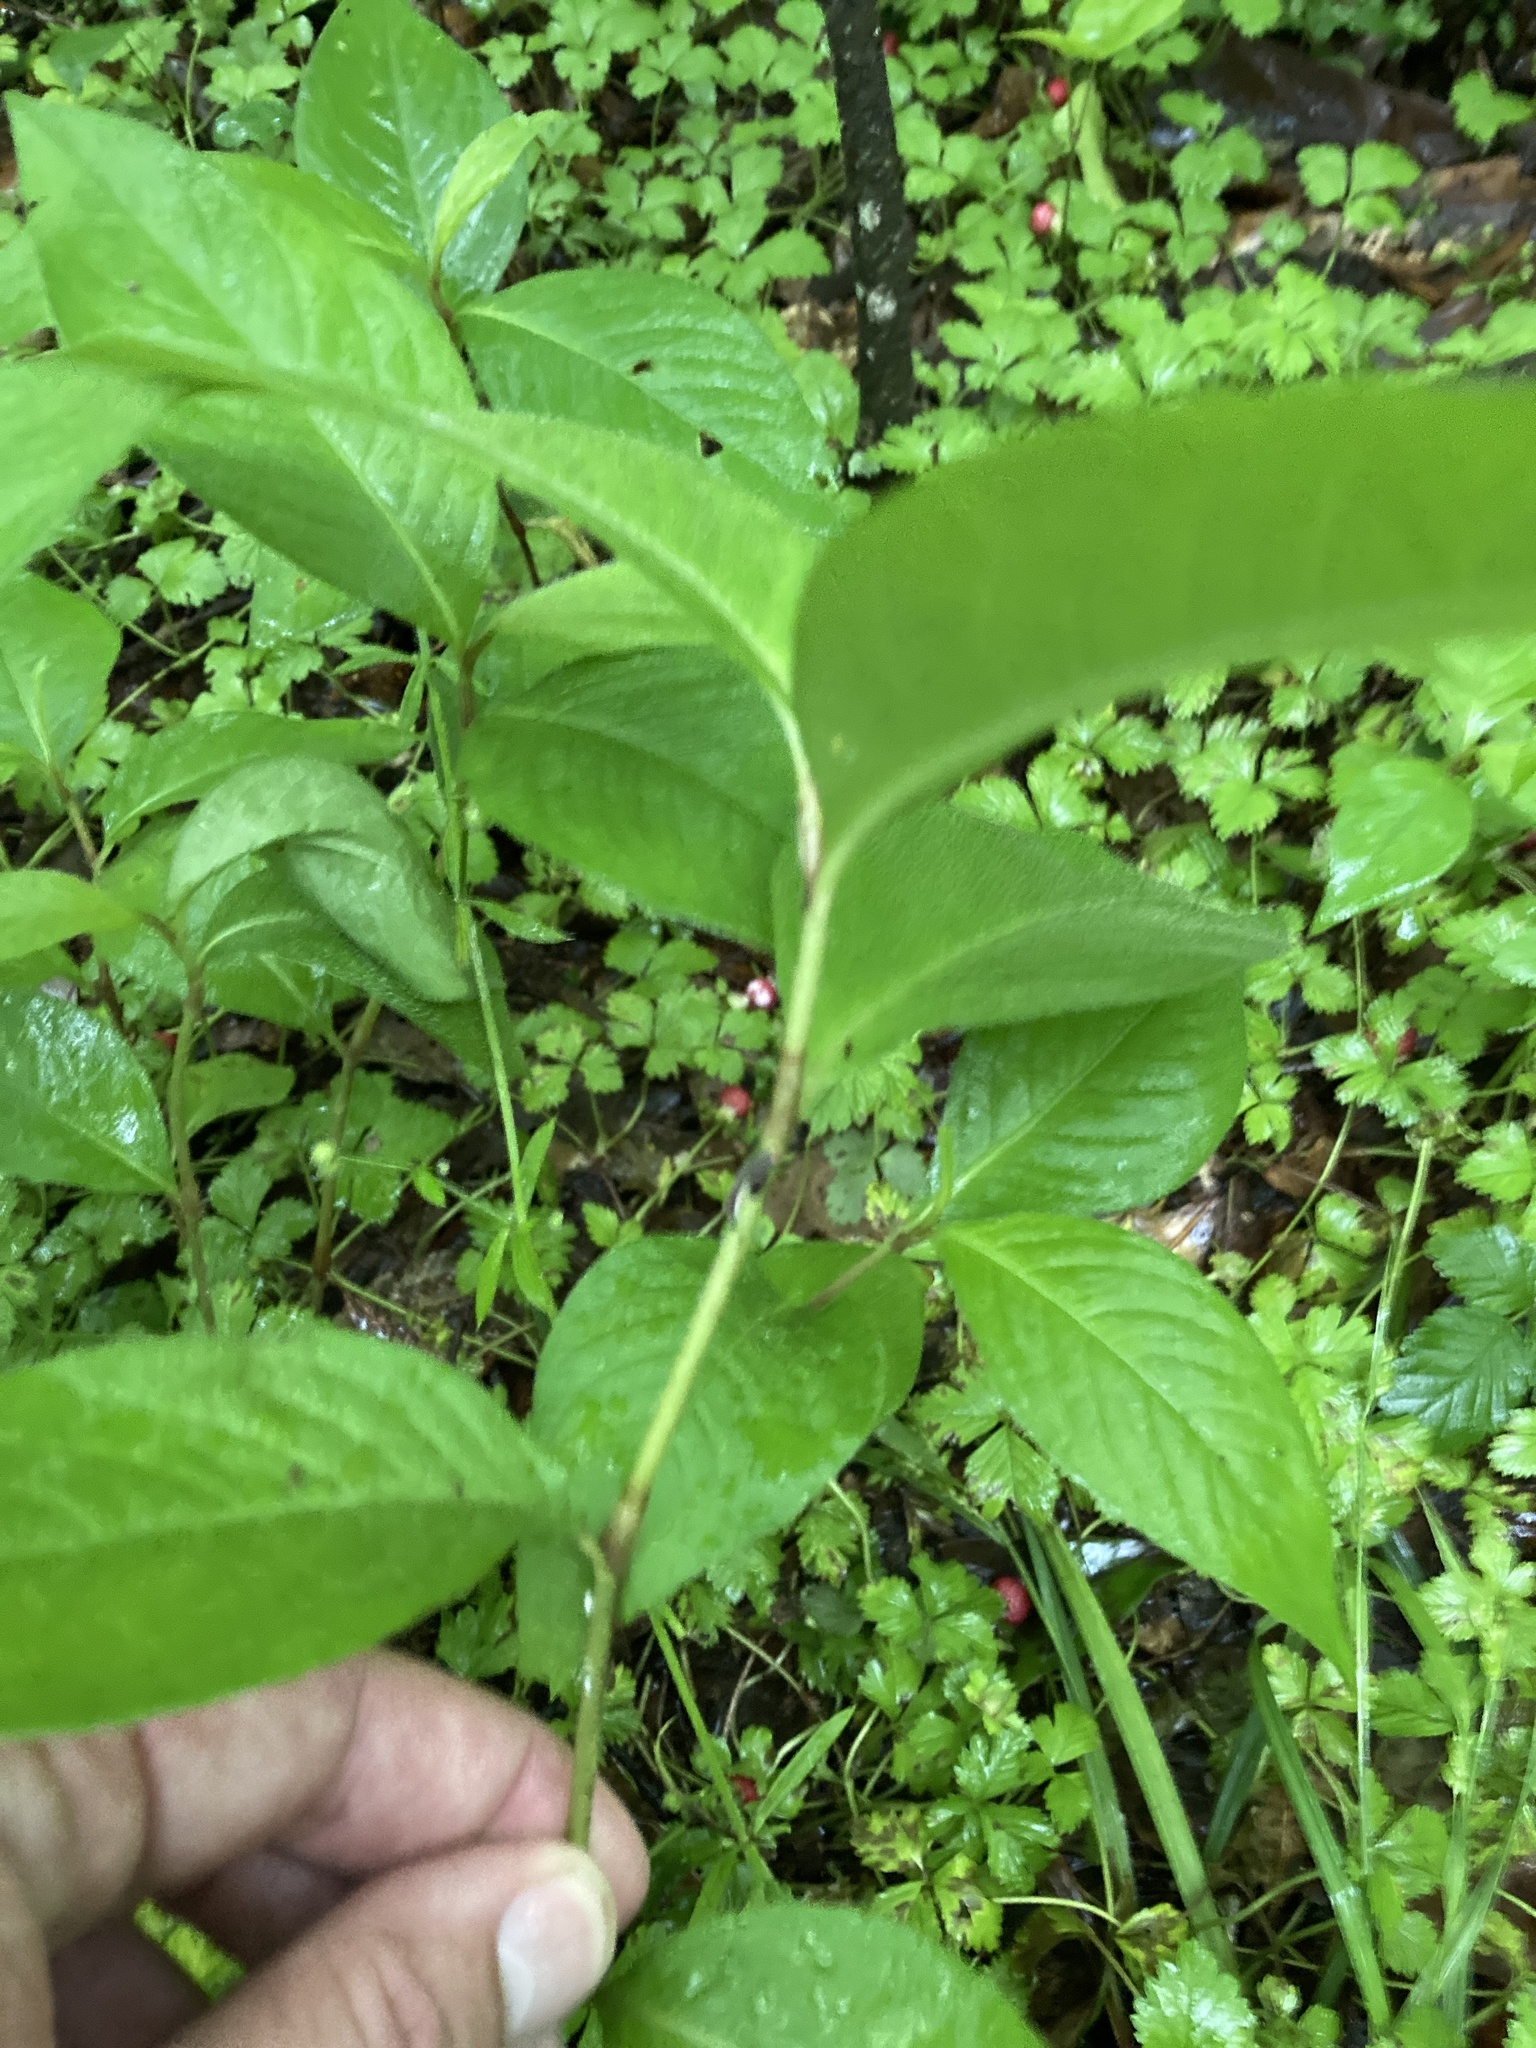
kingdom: Plantae
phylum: Tracheophyta
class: Magnoliopsida
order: Caryophyllales
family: Polygonaceae
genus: Persicaria
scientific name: Persicaria virginiana
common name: Jumpseed
